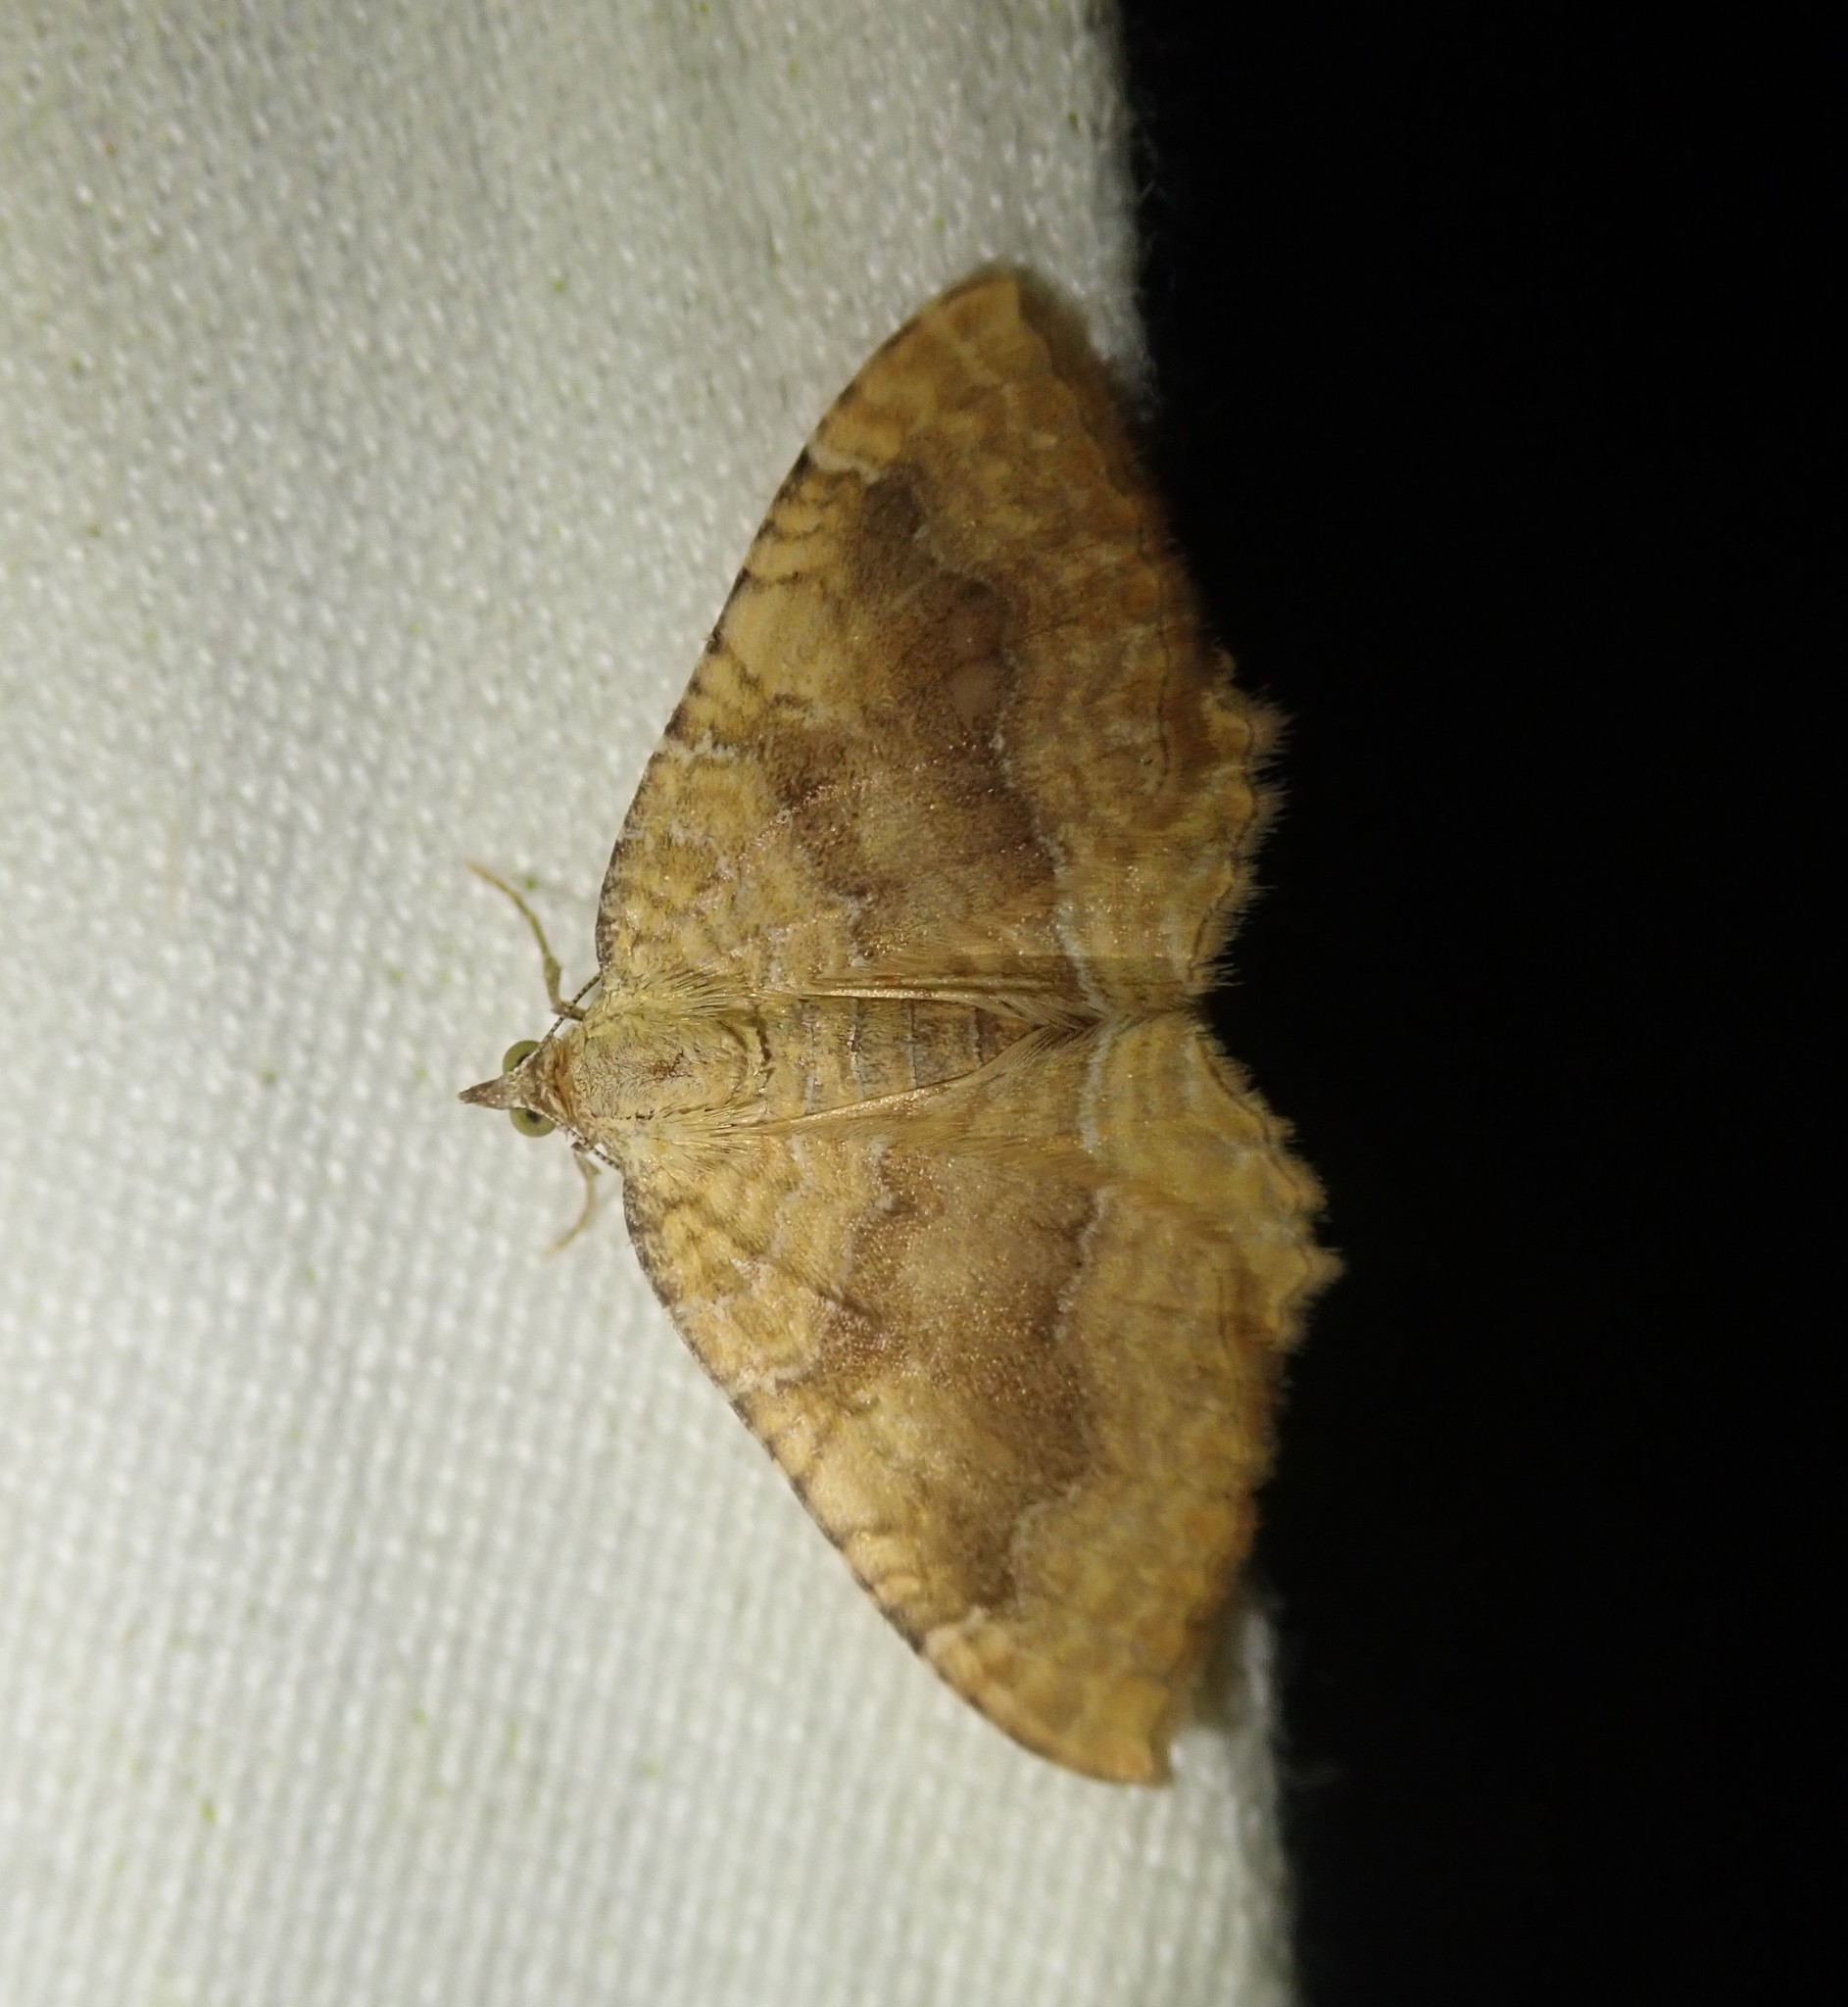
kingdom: Animalia
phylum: Arthropoda
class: Insecta
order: Lepidoptera
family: Geometridae
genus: Camptogramma
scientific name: Camptogramma bilineata
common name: Yellow shell
